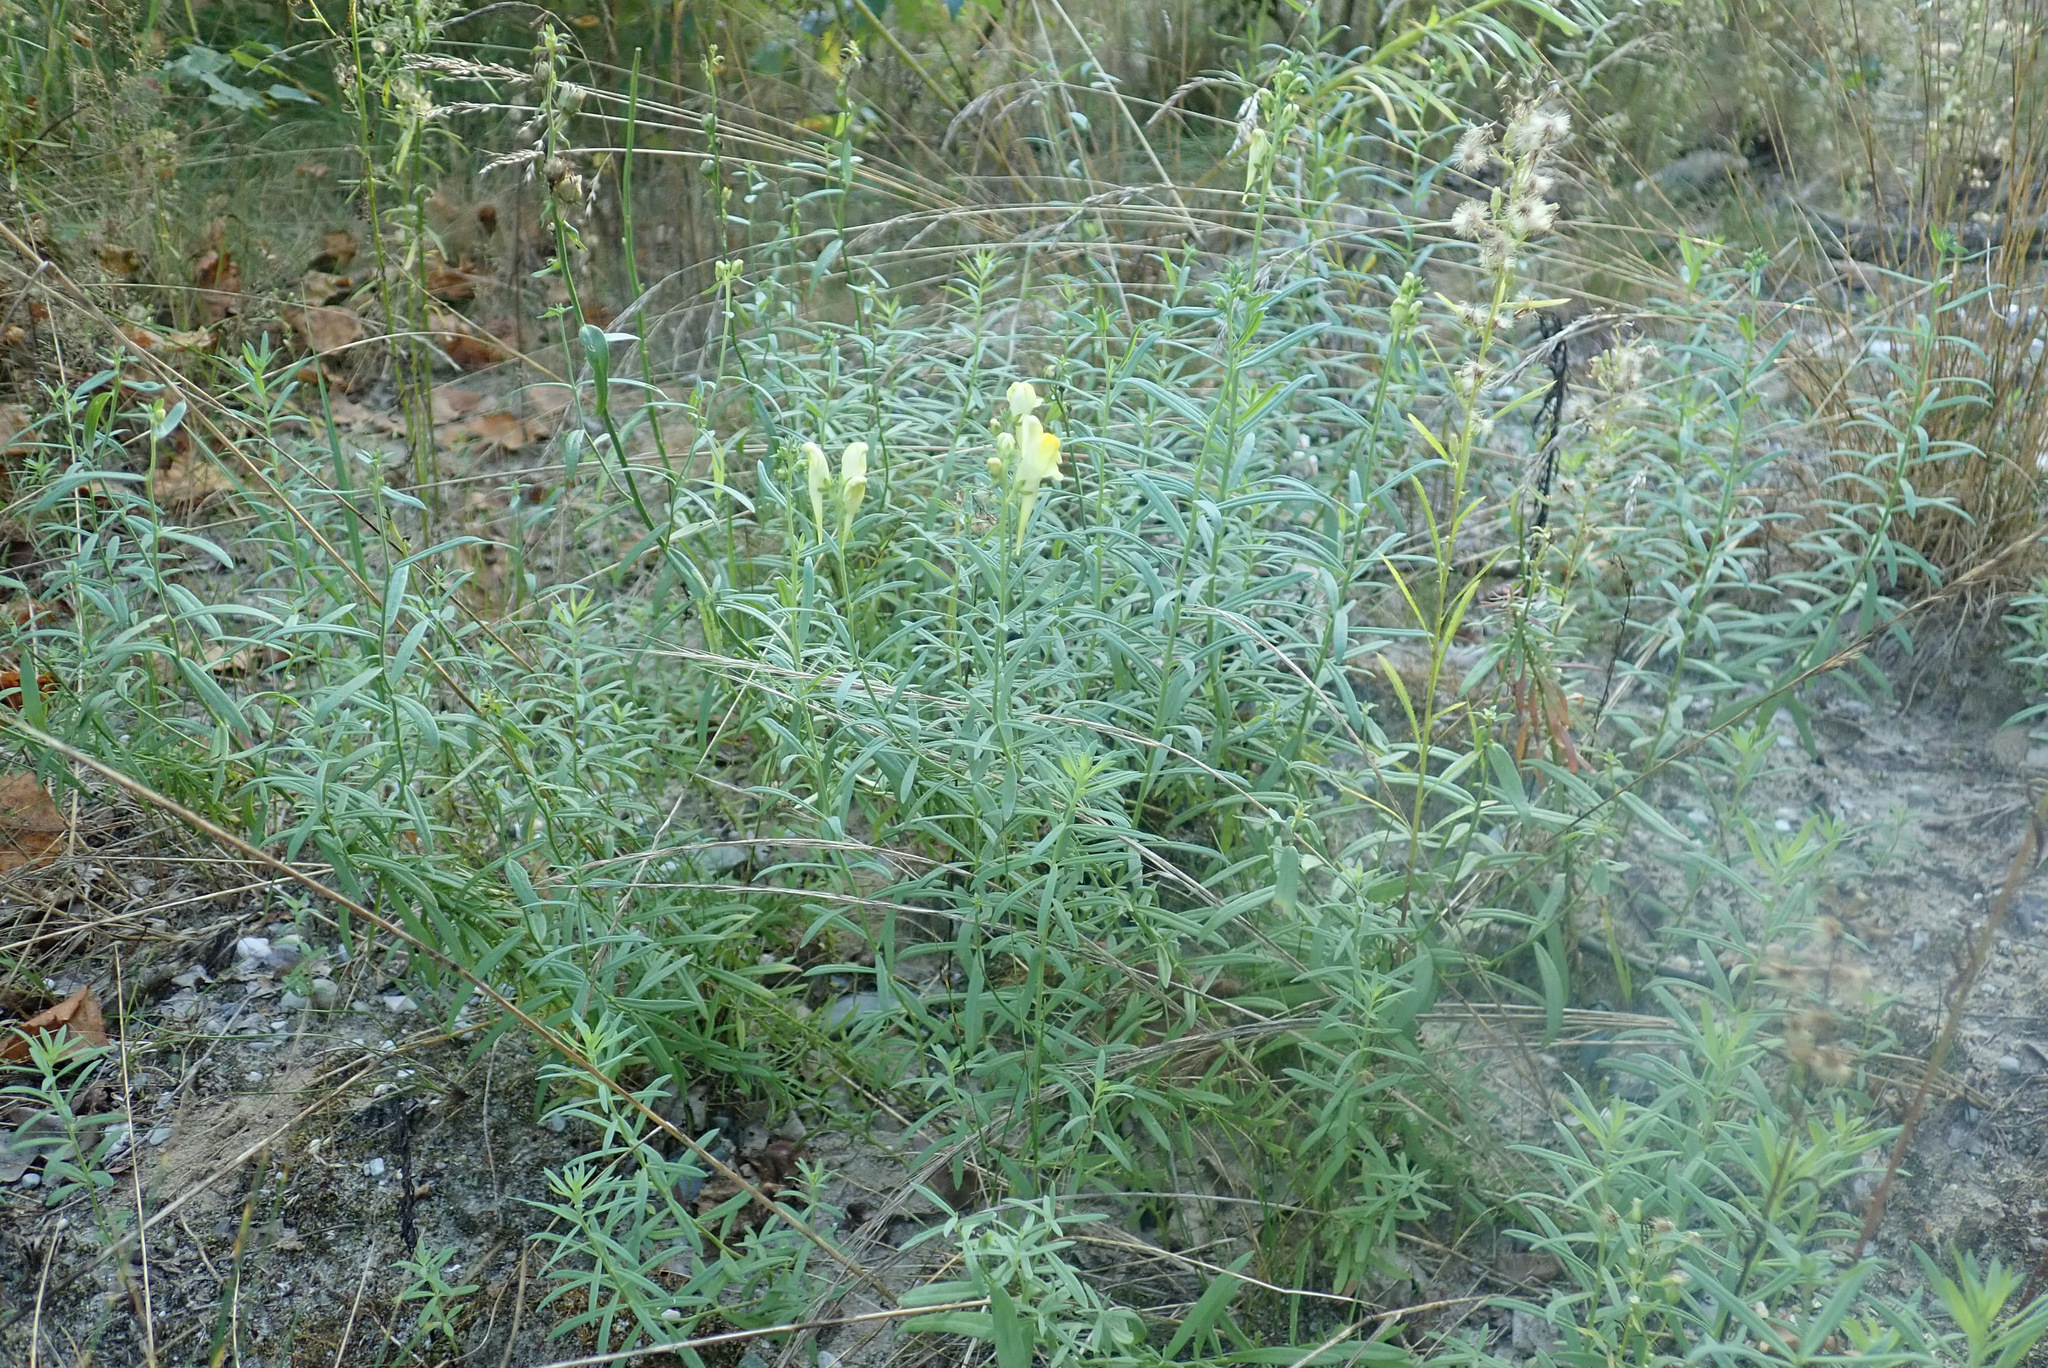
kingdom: Plantae
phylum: Tracheophyta
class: Magnoliopsida
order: Lamiales
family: Plantaginaceae
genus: Linaria
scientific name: Linaria vulgaris
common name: Butter and eggs
